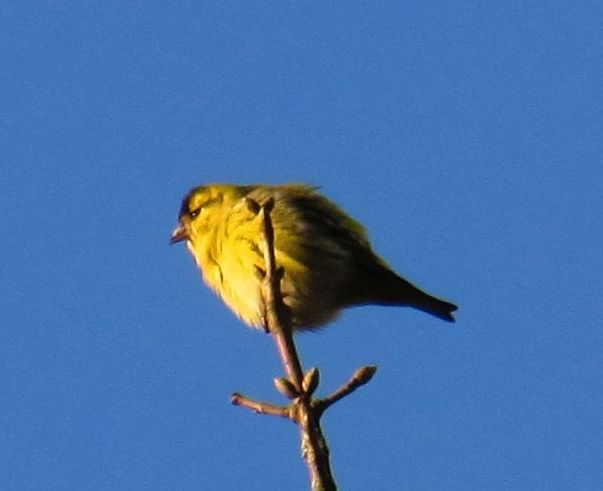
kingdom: Animalia
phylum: Chordata
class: Aves
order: Passeriformes
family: Fringillidae
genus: Spinus
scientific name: Spinus spinus
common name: Eurasian siskin
